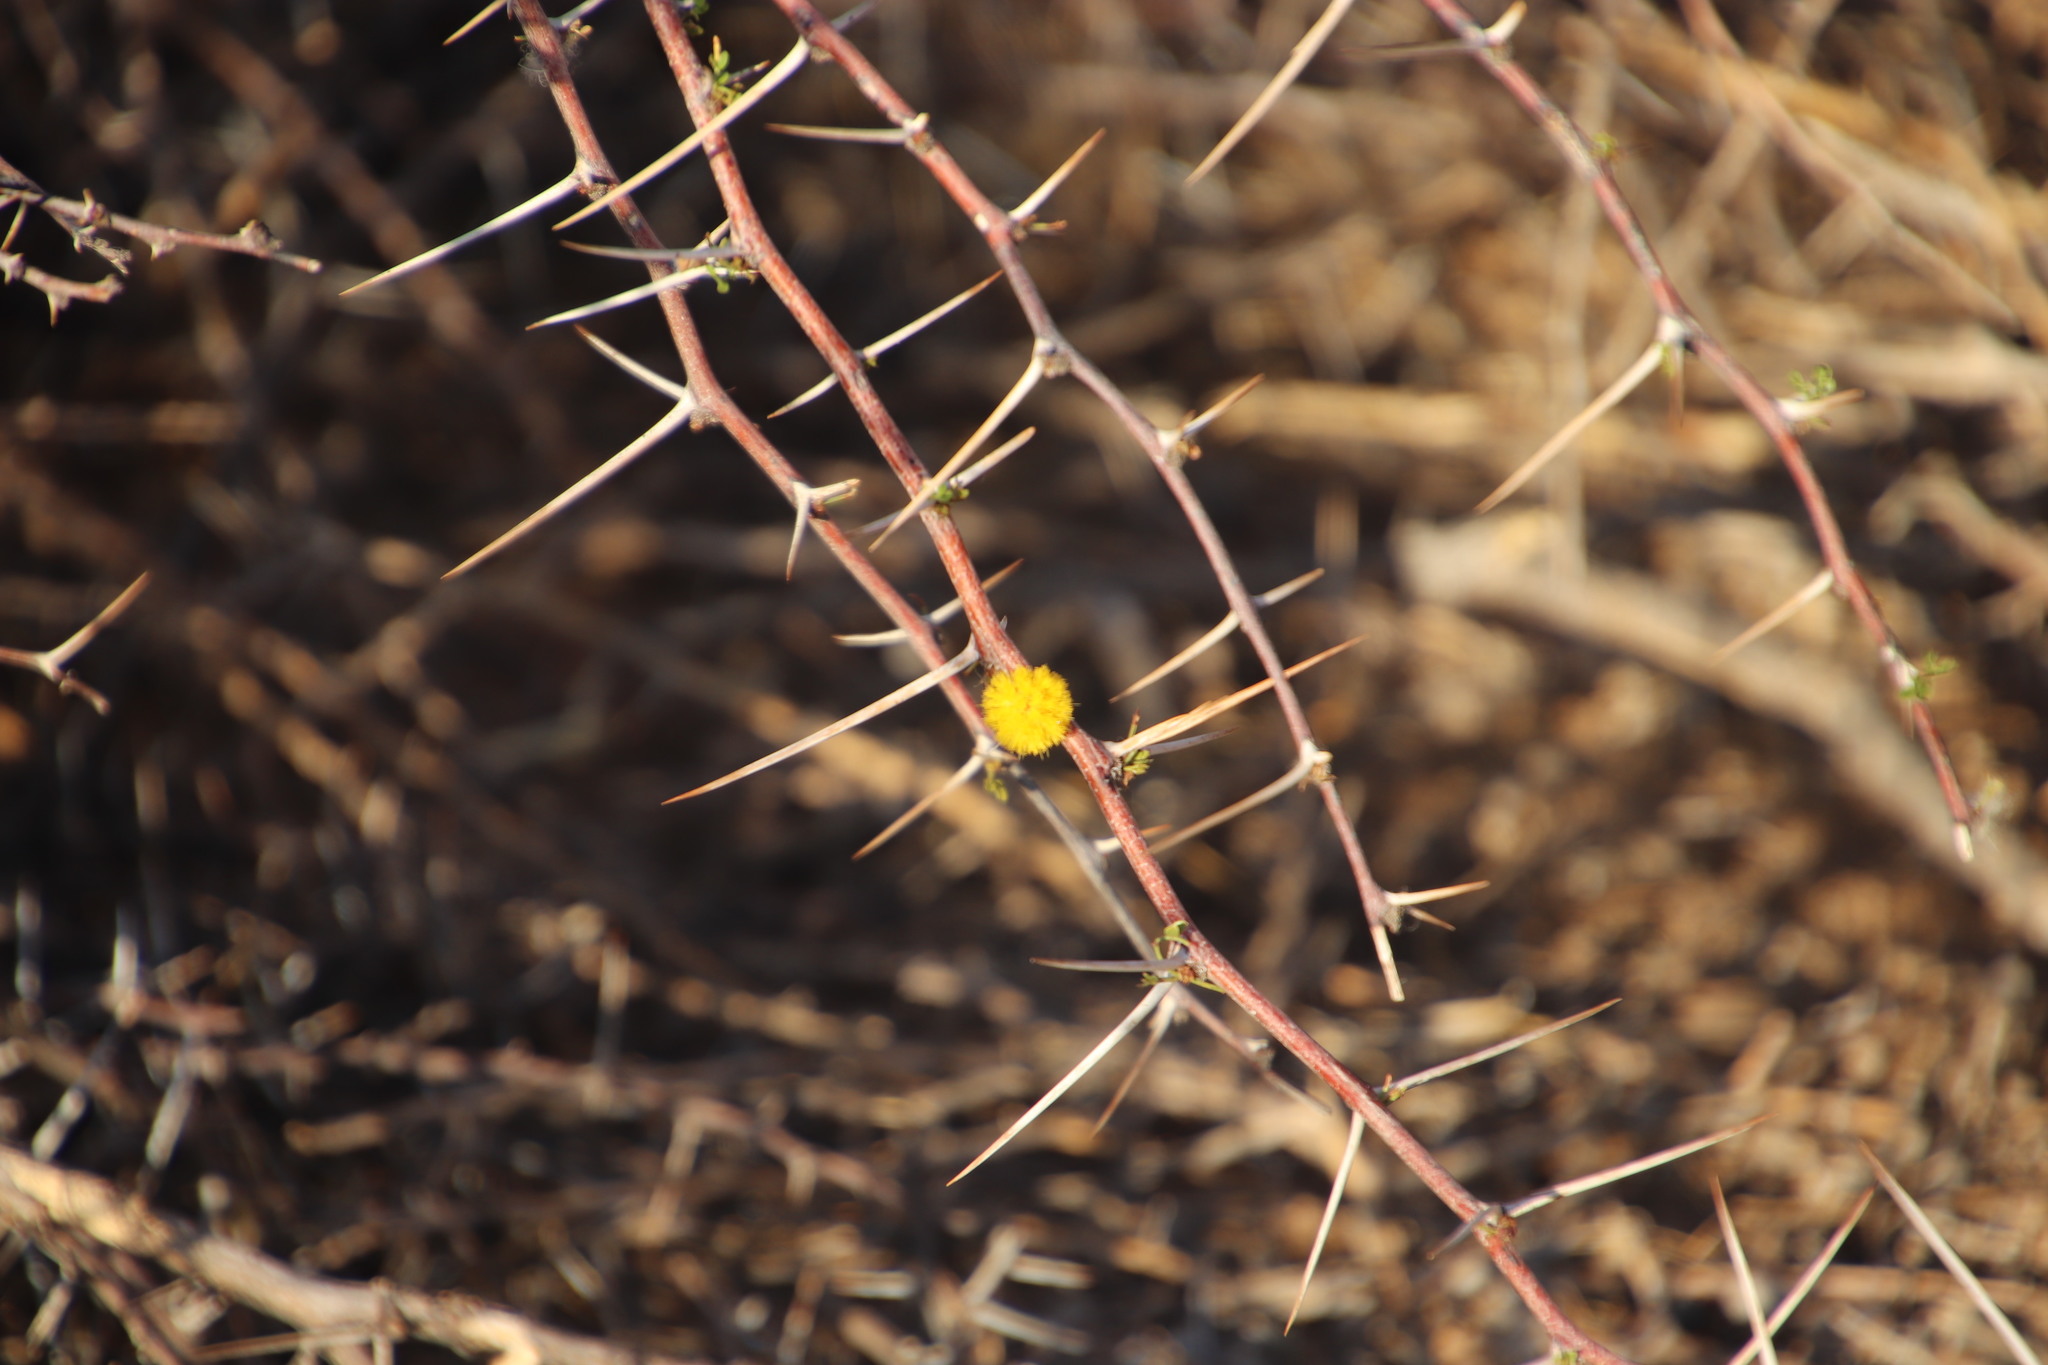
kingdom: Plantae
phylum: Tracheophyta
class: Magnoliopsida
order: Fabales
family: Fabaceae
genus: Vachellia
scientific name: Vachellia nebrownii
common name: Water acacia
